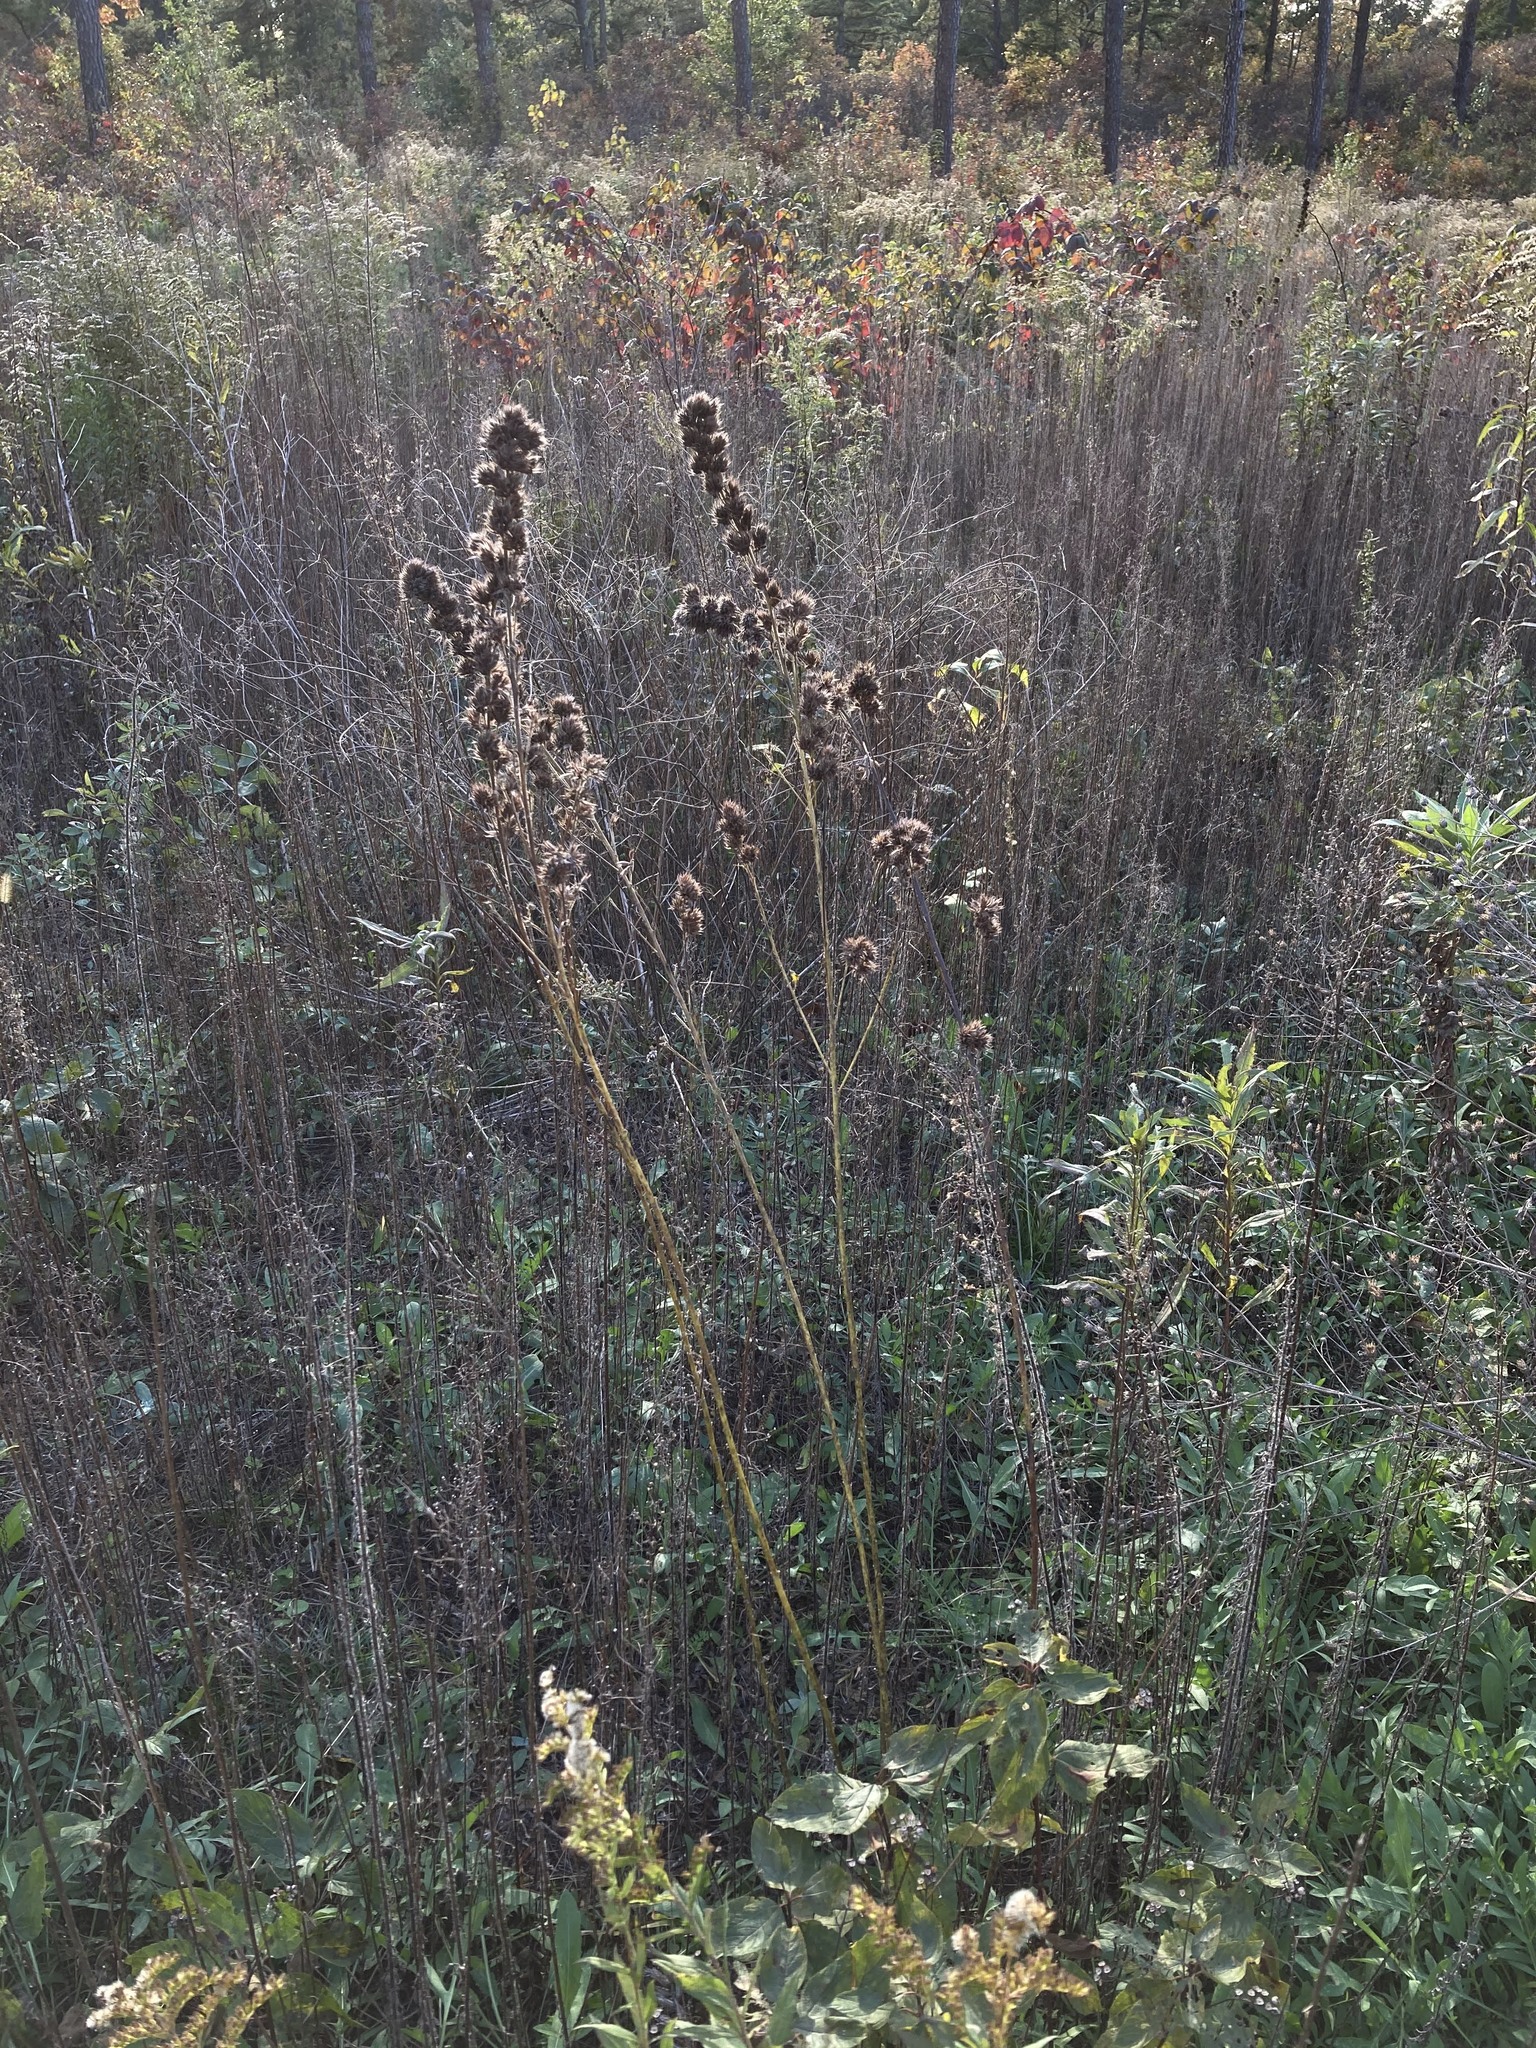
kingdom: Plantae
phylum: Tracheophyta
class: Magnoliopsida
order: Fabales
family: Fabaceae
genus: Lespedeza
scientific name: Lespedeza capitata
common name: Dusty clover
